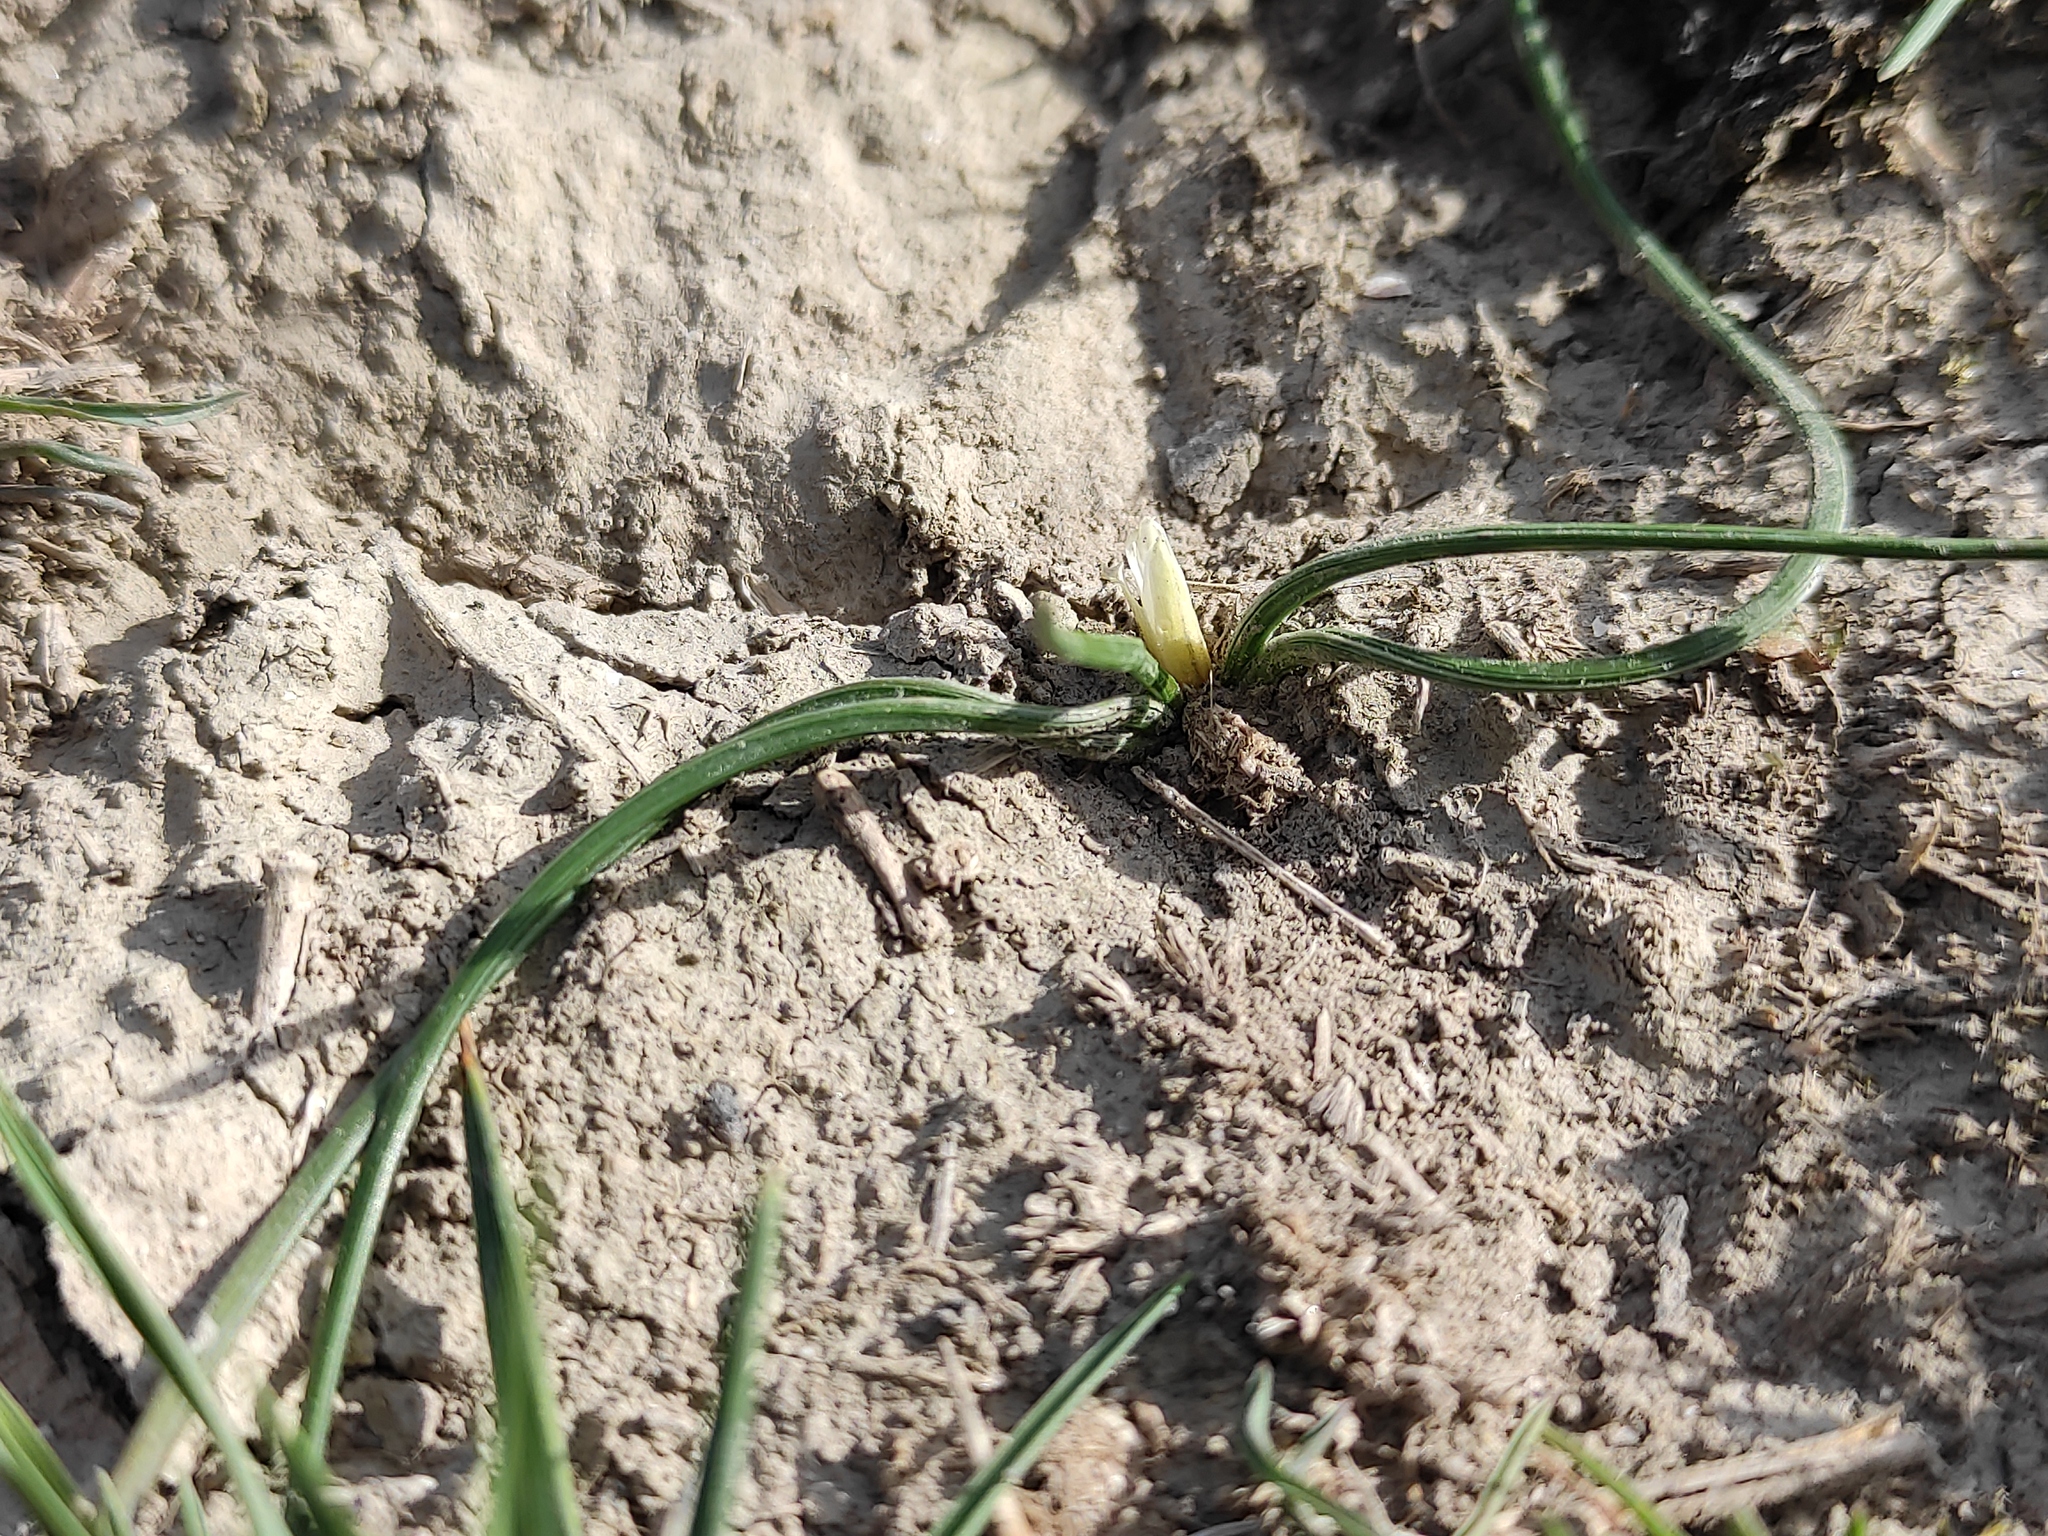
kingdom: Plantae
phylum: Tracheophyta
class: Liliopsida
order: Asparagales
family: Iridaceae
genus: Romulea
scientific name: Romulea columnae
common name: Sand-crocus
